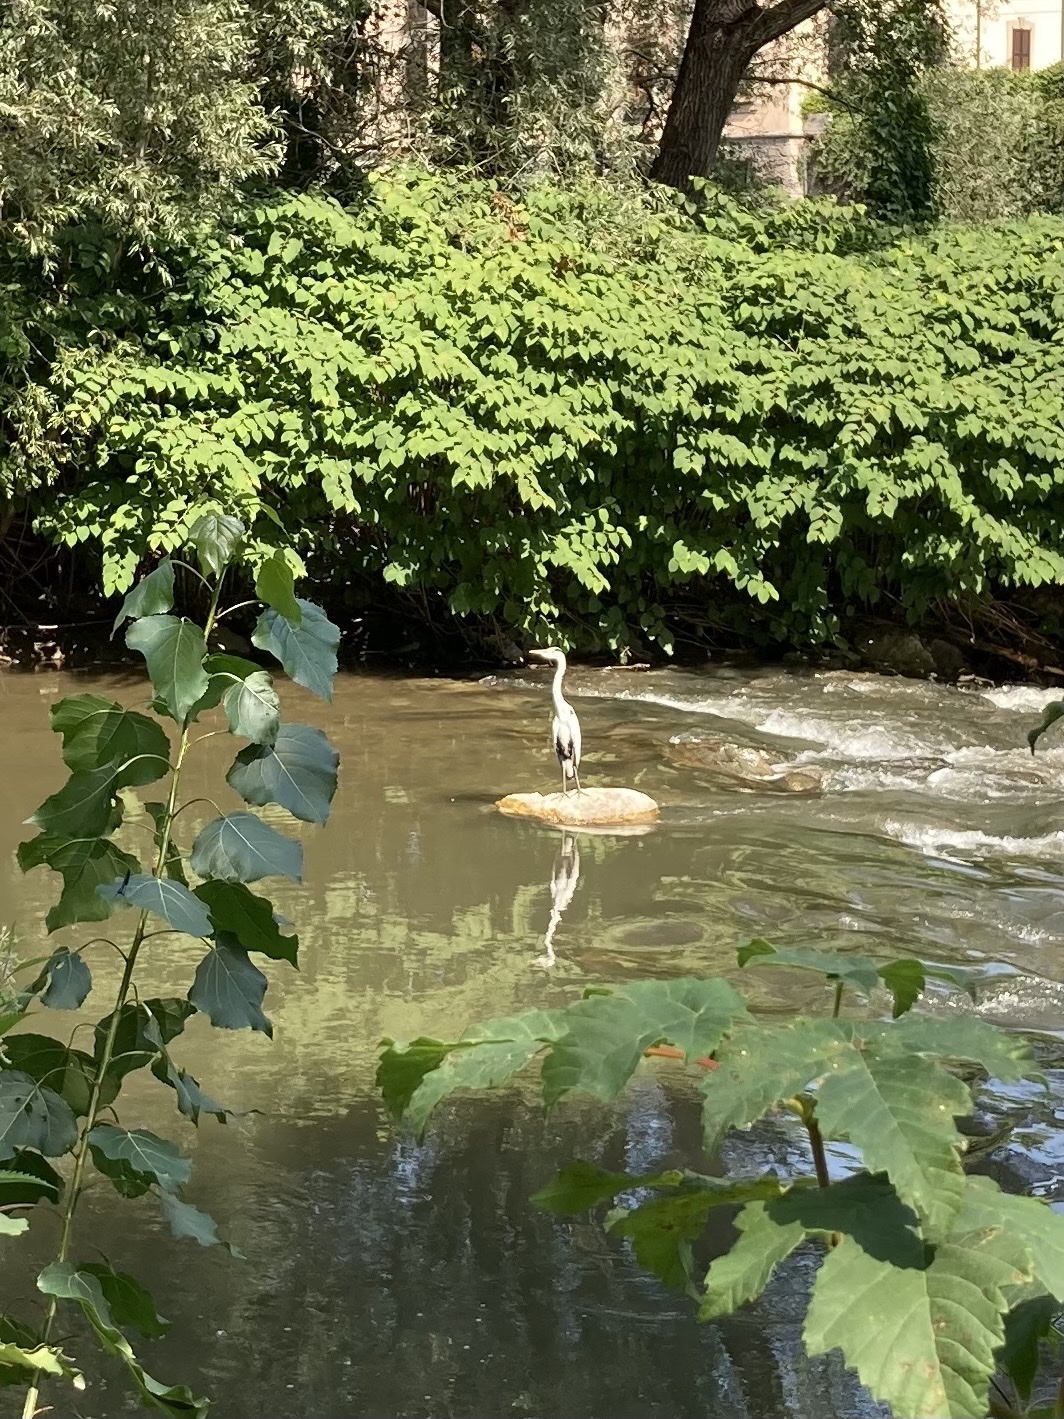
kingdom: Animalia
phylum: Chordata
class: Aves
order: Pelecaniformes
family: Ardeidae
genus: Ardea
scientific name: Ardea cinerea
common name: Grey heron
